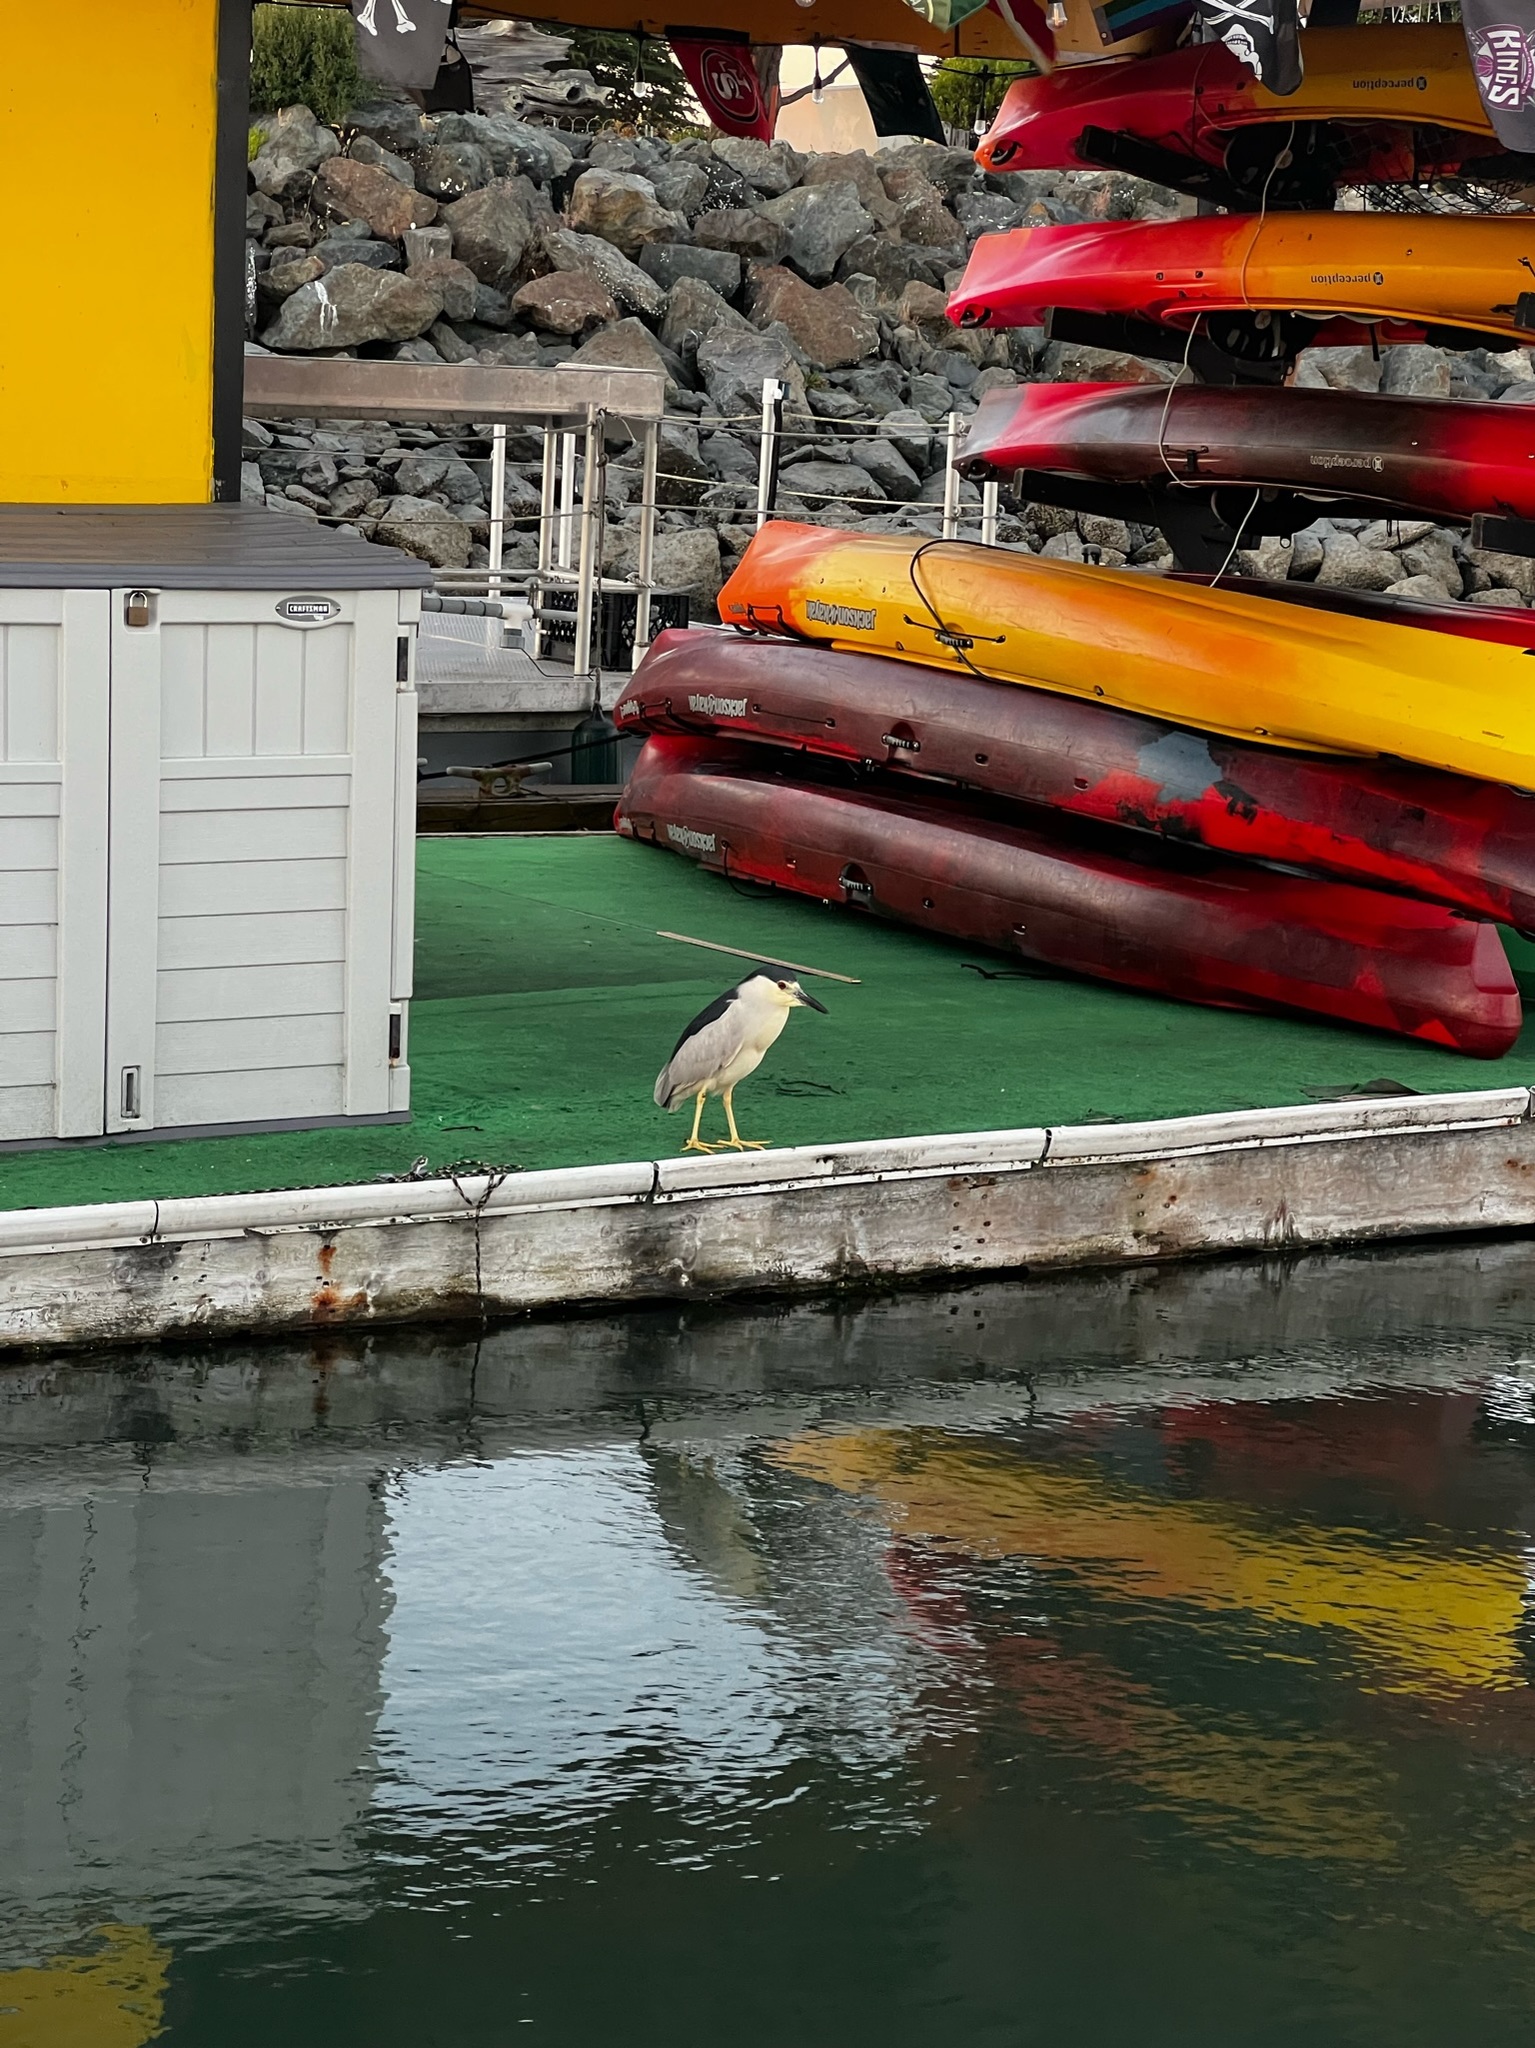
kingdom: Animalia
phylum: Chordata
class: Aves
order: Pelecaniformes
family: Ardeidae
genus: Nycticorax
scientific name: Nycticorax nycticorax
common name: Black-crowned night heron
